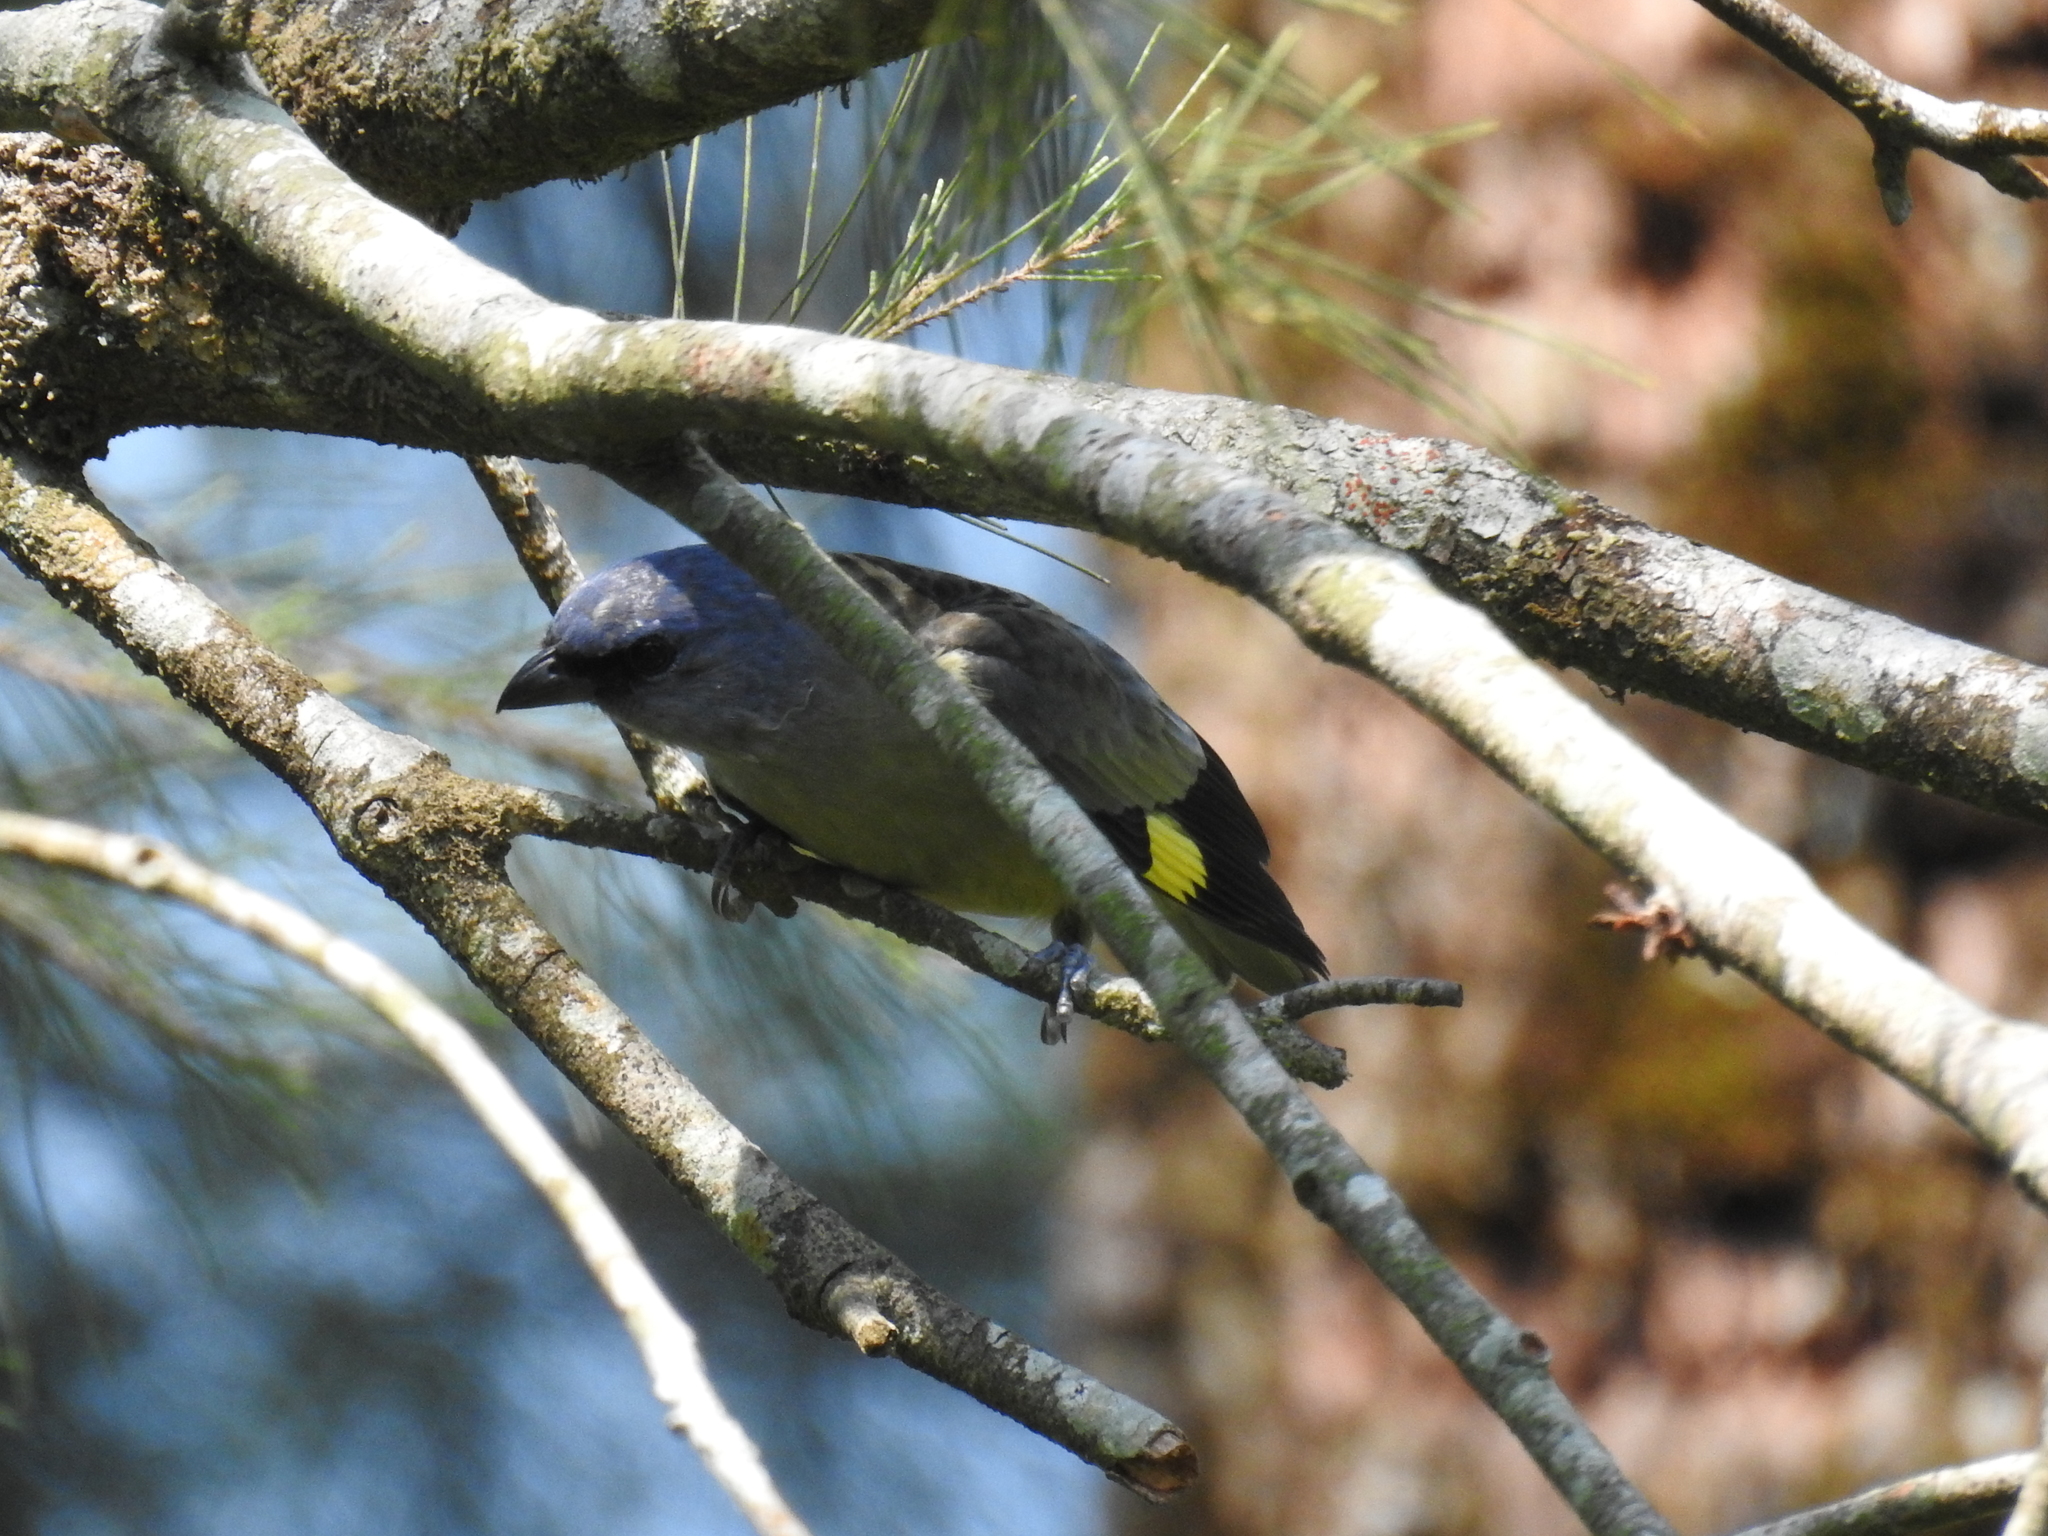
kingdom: Animalia
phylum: Chordata
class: Aves
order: Passeriformes
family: Thraupidae
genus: Thraupis
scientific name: Thraupis abbas
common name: Yellow-winged tanager
